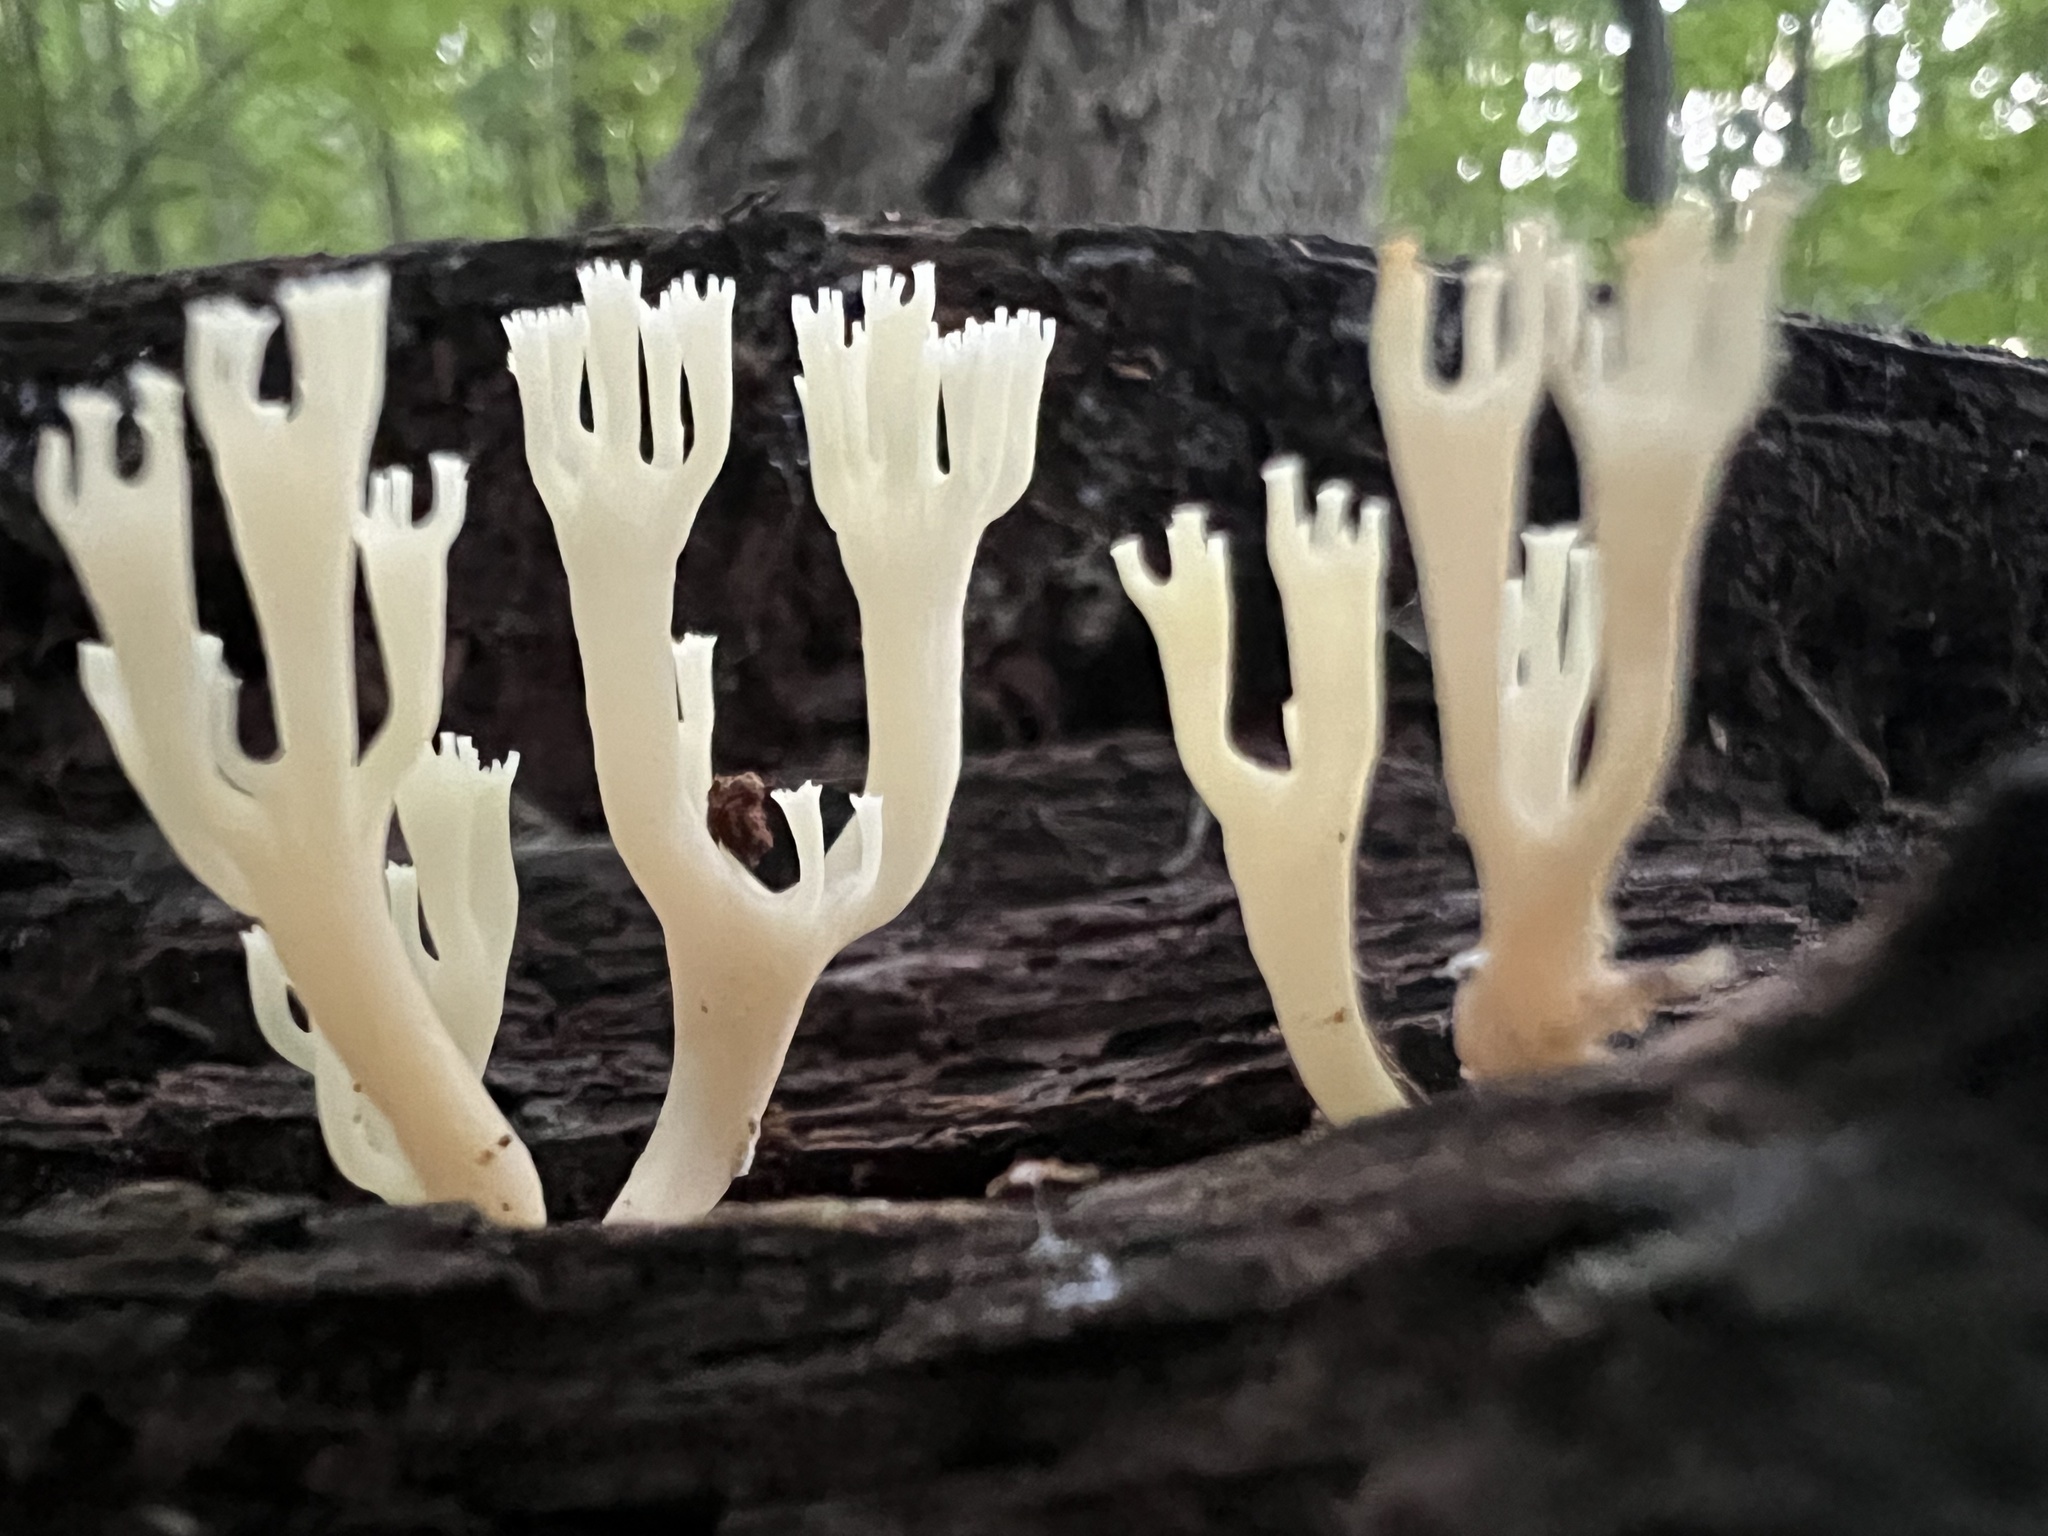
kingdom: Fungi
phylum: Basidiomycota
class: Agaricomycetes
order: Russulales
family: Auriscalpiaceae
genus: Artomyces
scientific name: Artomyces pyxidatus
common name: Crown-tipped coral fungus
